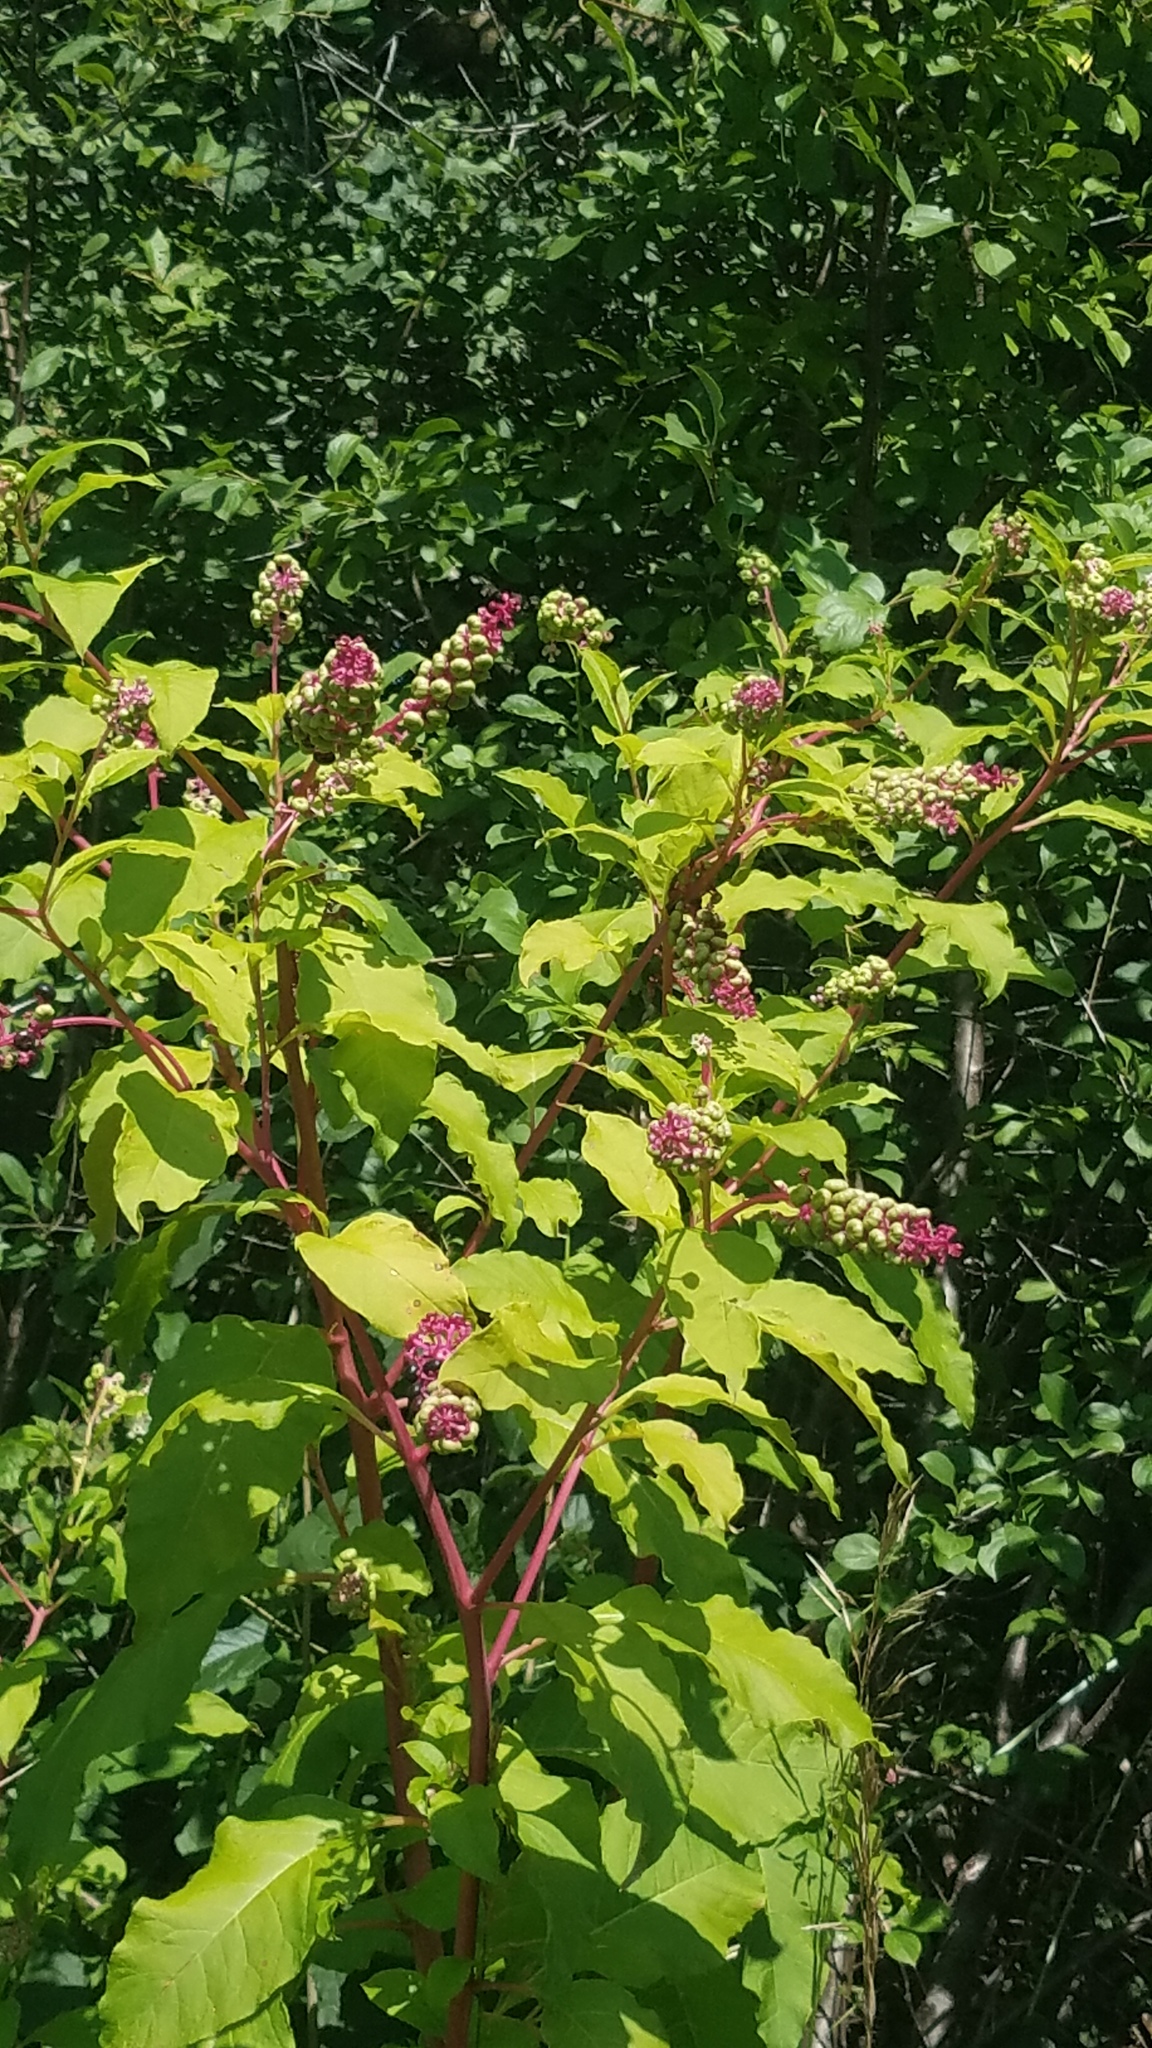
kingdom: Plantae
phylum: Tracheophyta
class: Magnoliopsida
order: Caryophyllales
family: Phytolaccaceae
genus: Phytolacca
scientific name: Phytolacca americana
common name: American pokeweed
